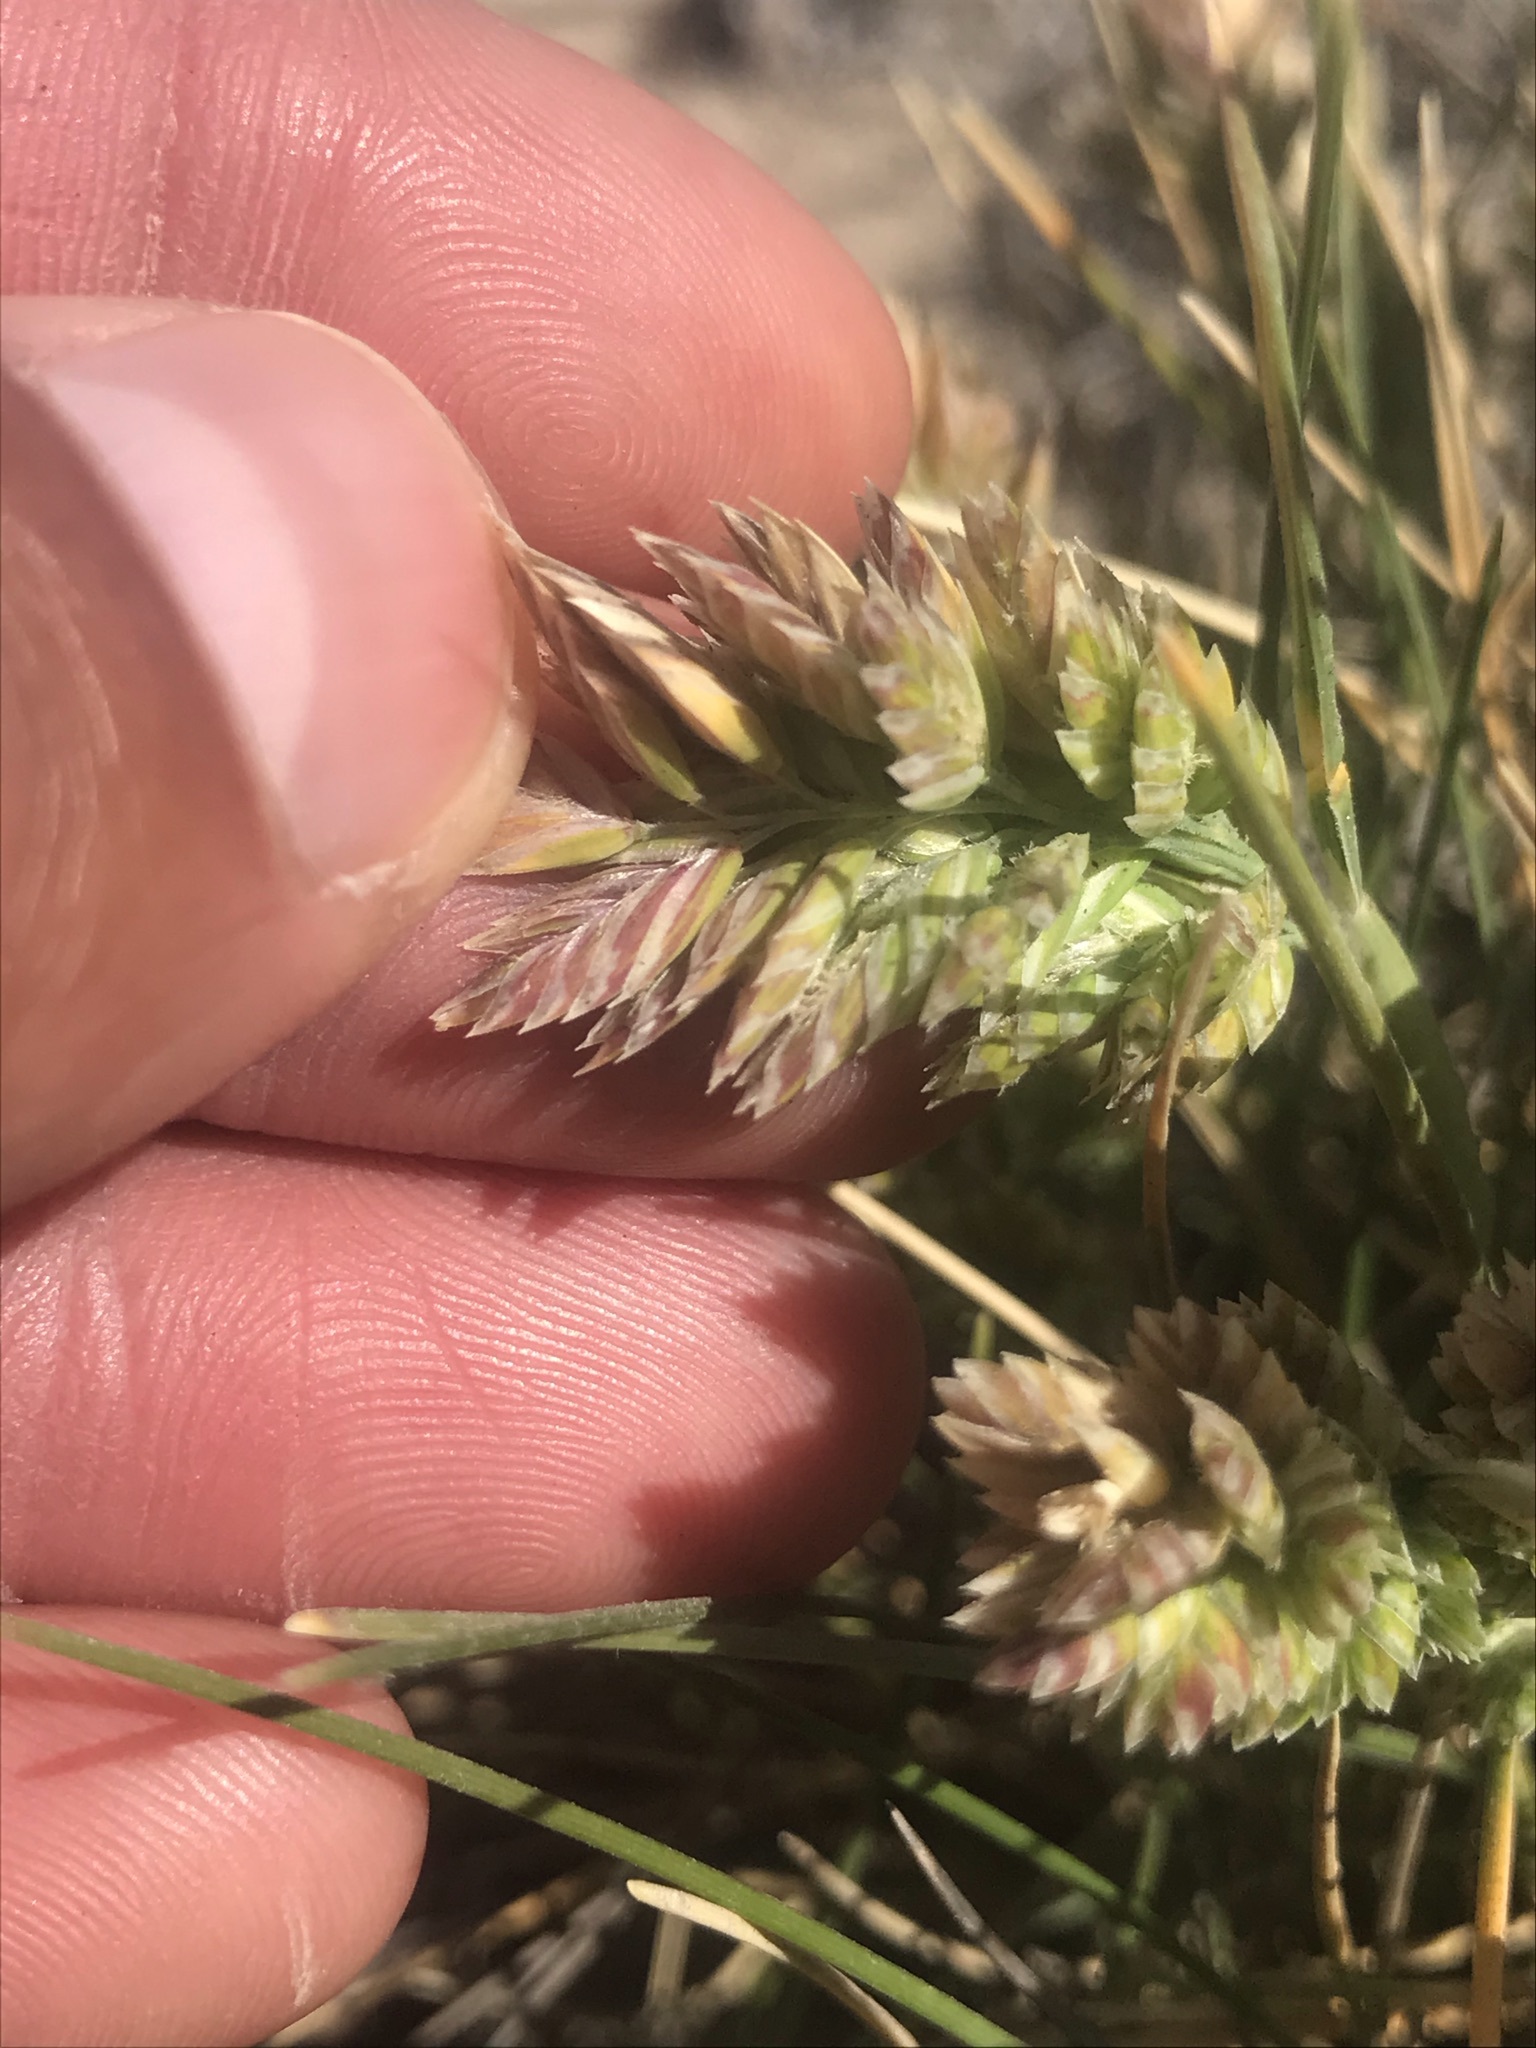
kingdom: Plantae
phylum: Tracheophyta
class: Liliopsida
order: Poales
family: Poaceae
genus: Poa
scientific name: Poa douglasii
